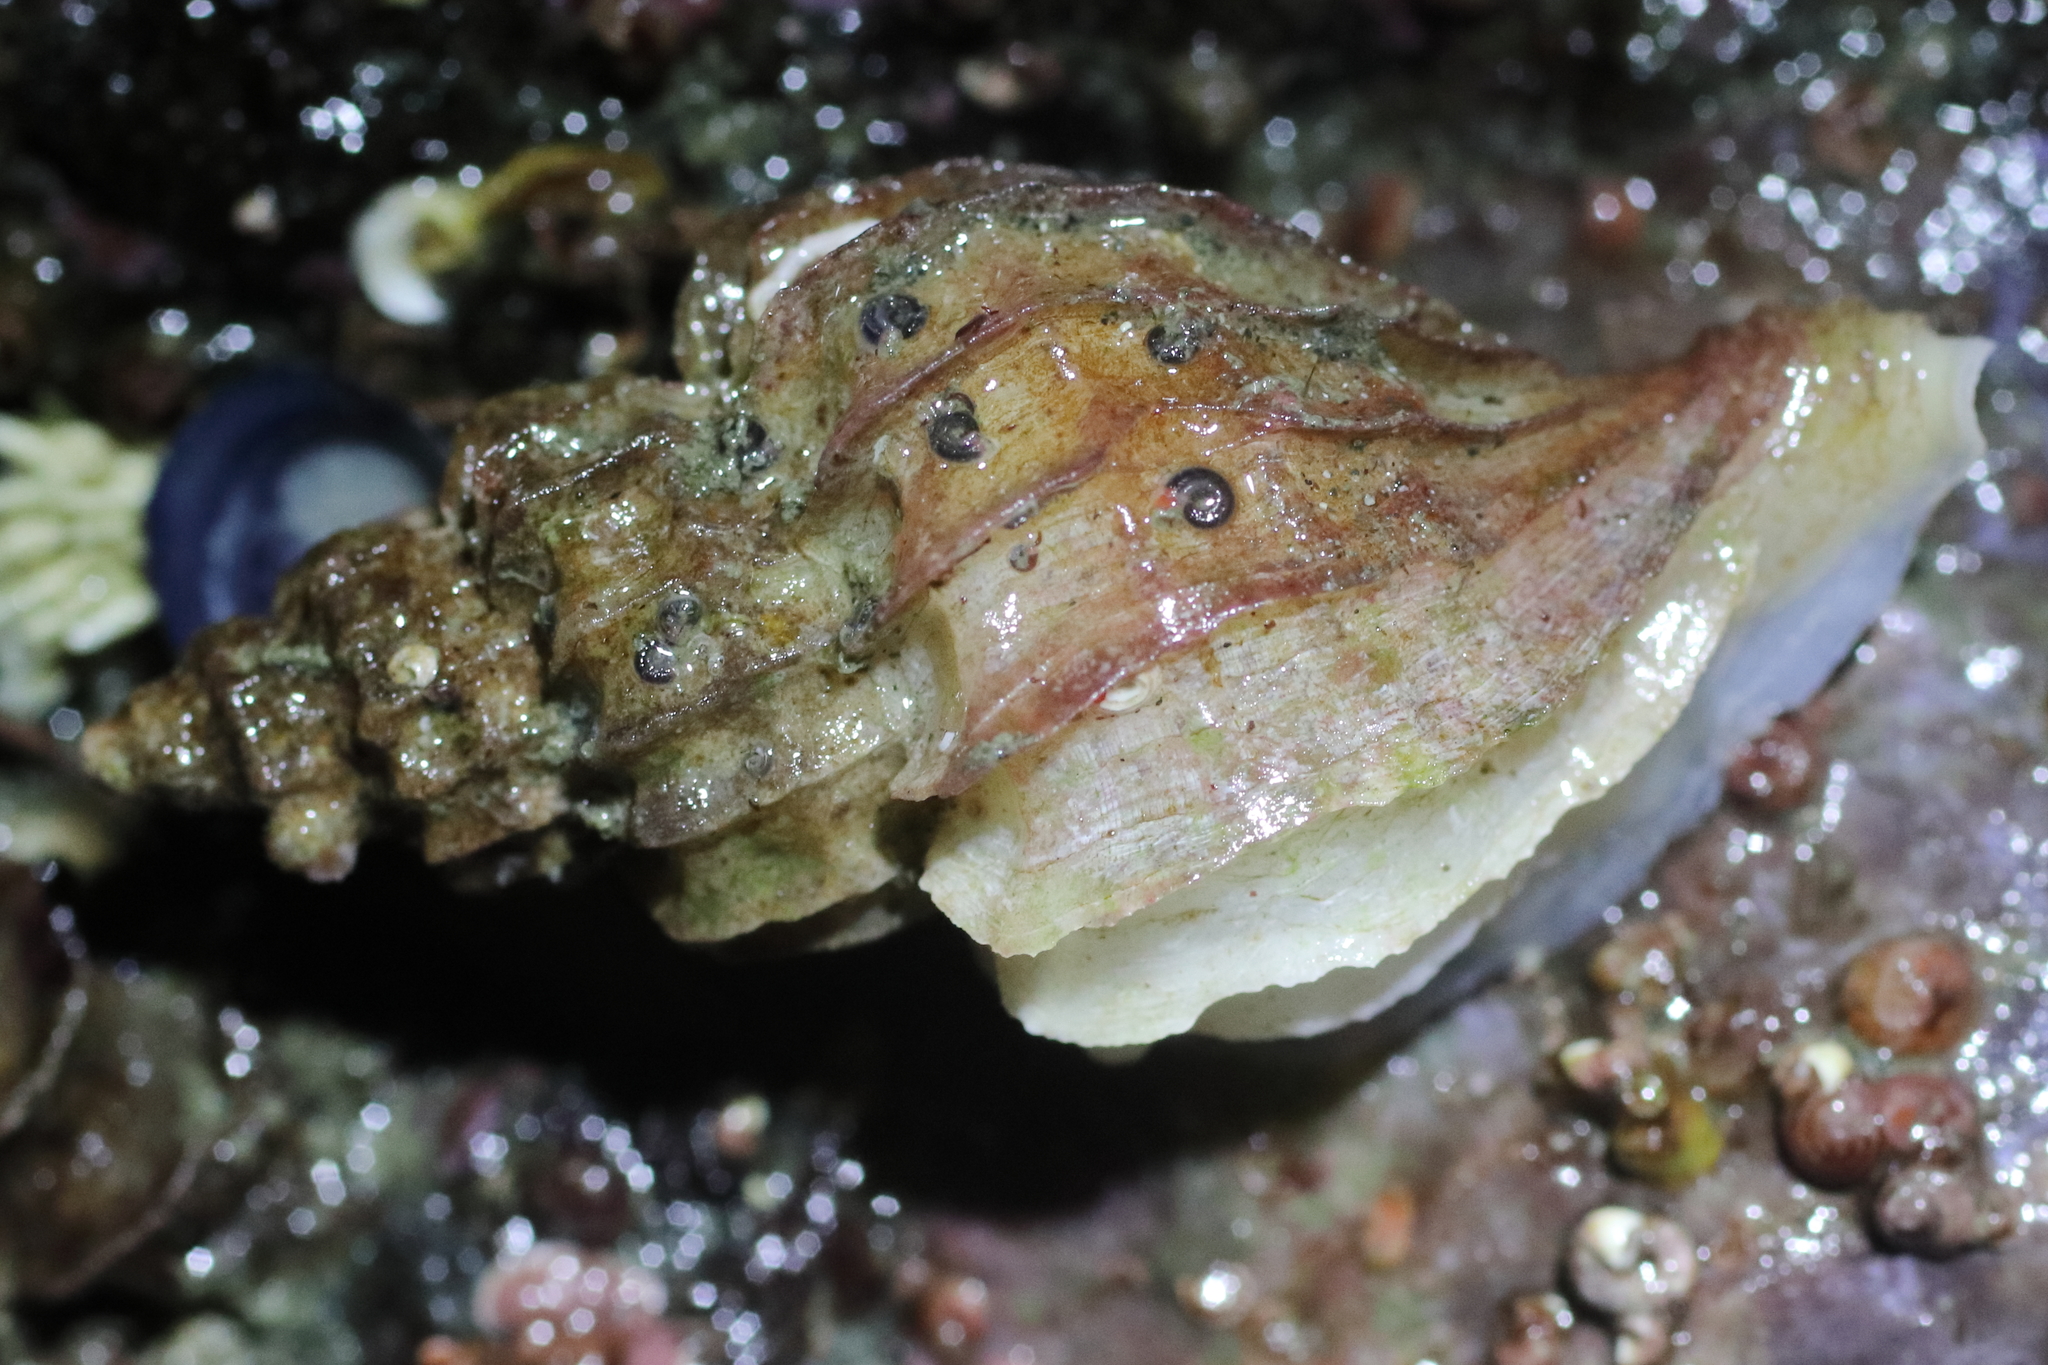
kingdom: Animalia
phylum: Mollusca
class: Gastropoda
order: Neogastropoda
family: Muricidae
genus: Scabrotrophon
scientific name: Scabrotrophon stuarti
